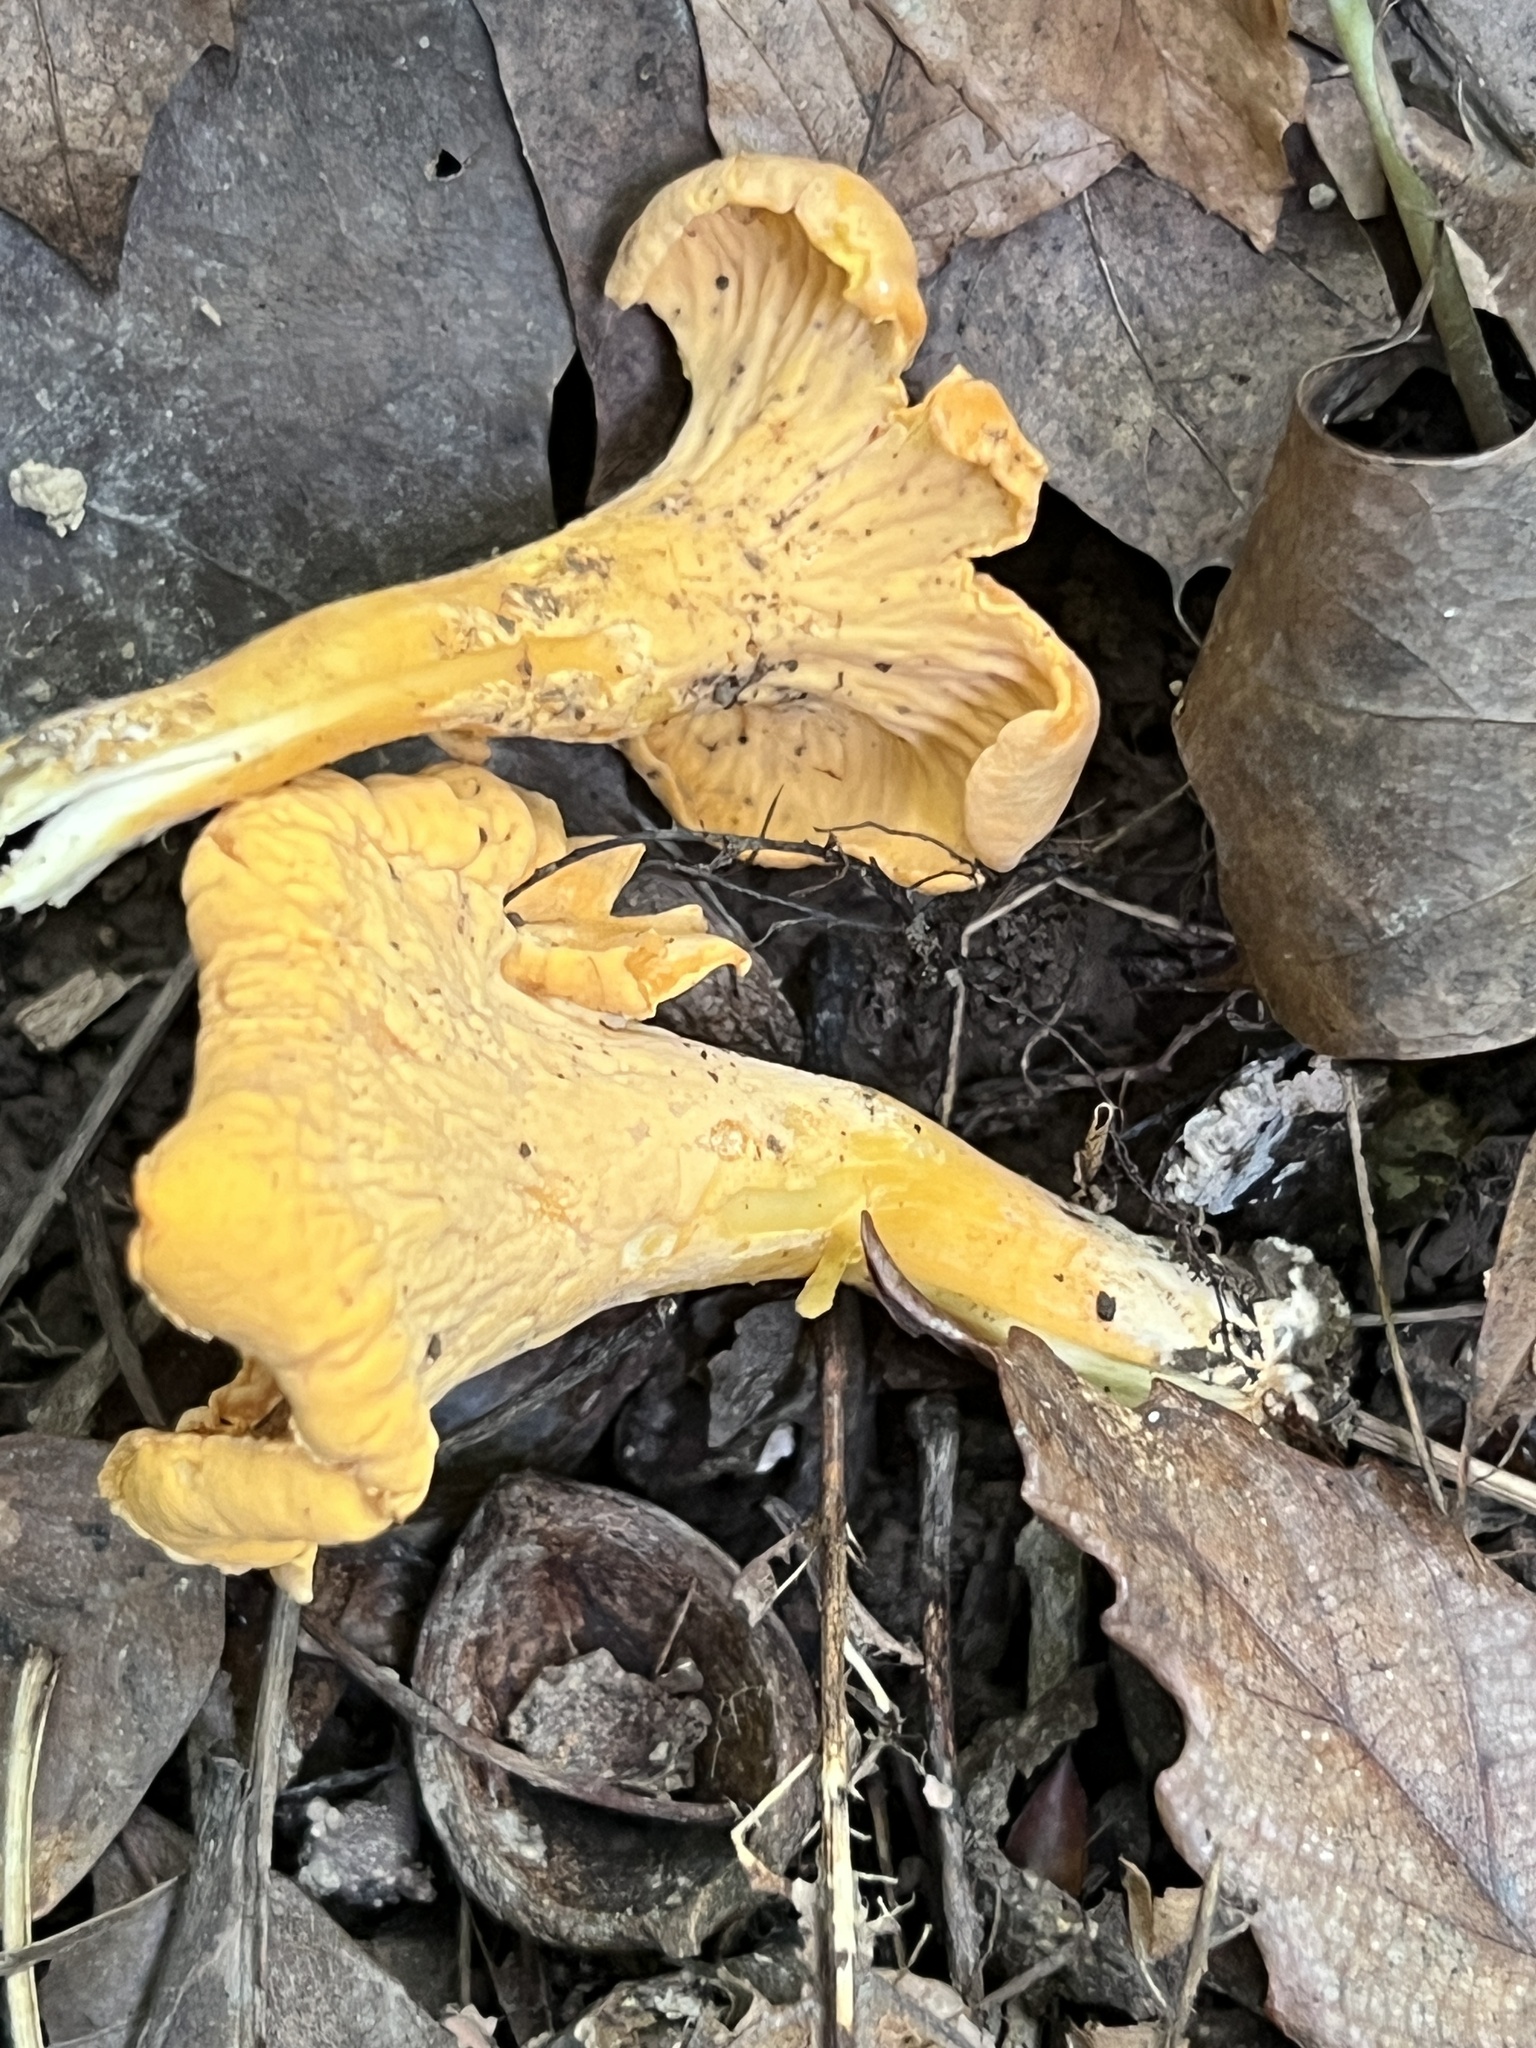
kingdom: Fungi
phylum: Basidiomycota
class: Agaricomycetes
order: Cantharellales
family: Hydnaceae
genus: Cantharellus
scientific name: Cantharellus flavolateritius
